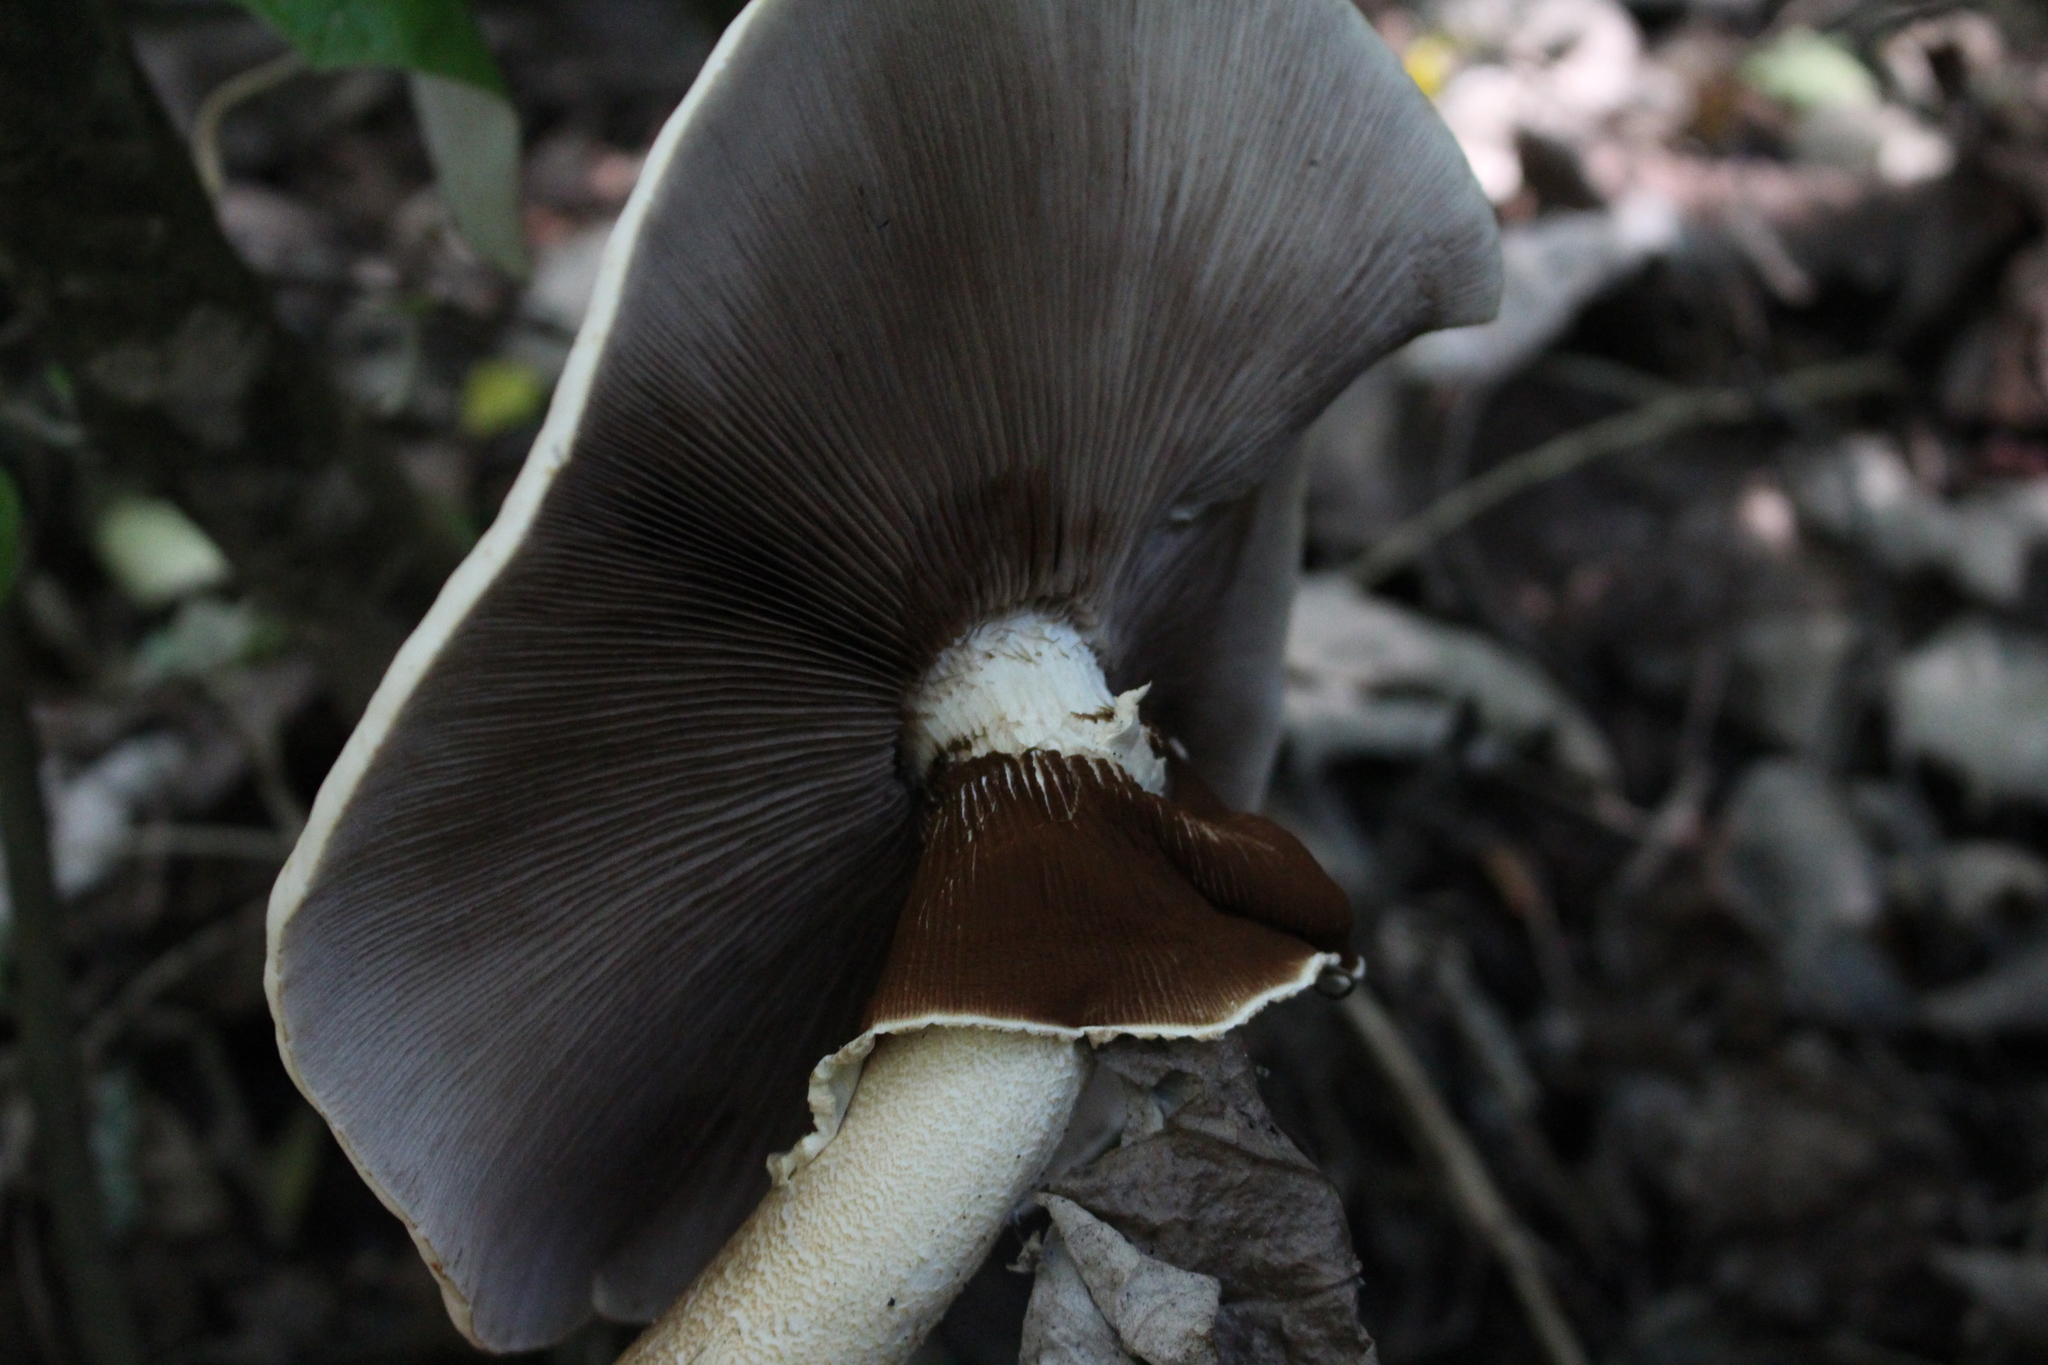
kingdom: Fungi
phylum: Basidiomycota
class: Agaricomycetes
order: Agaricales
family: Tubariaceae
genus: Cyclocybe
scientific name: Cyclocybe parasitica
